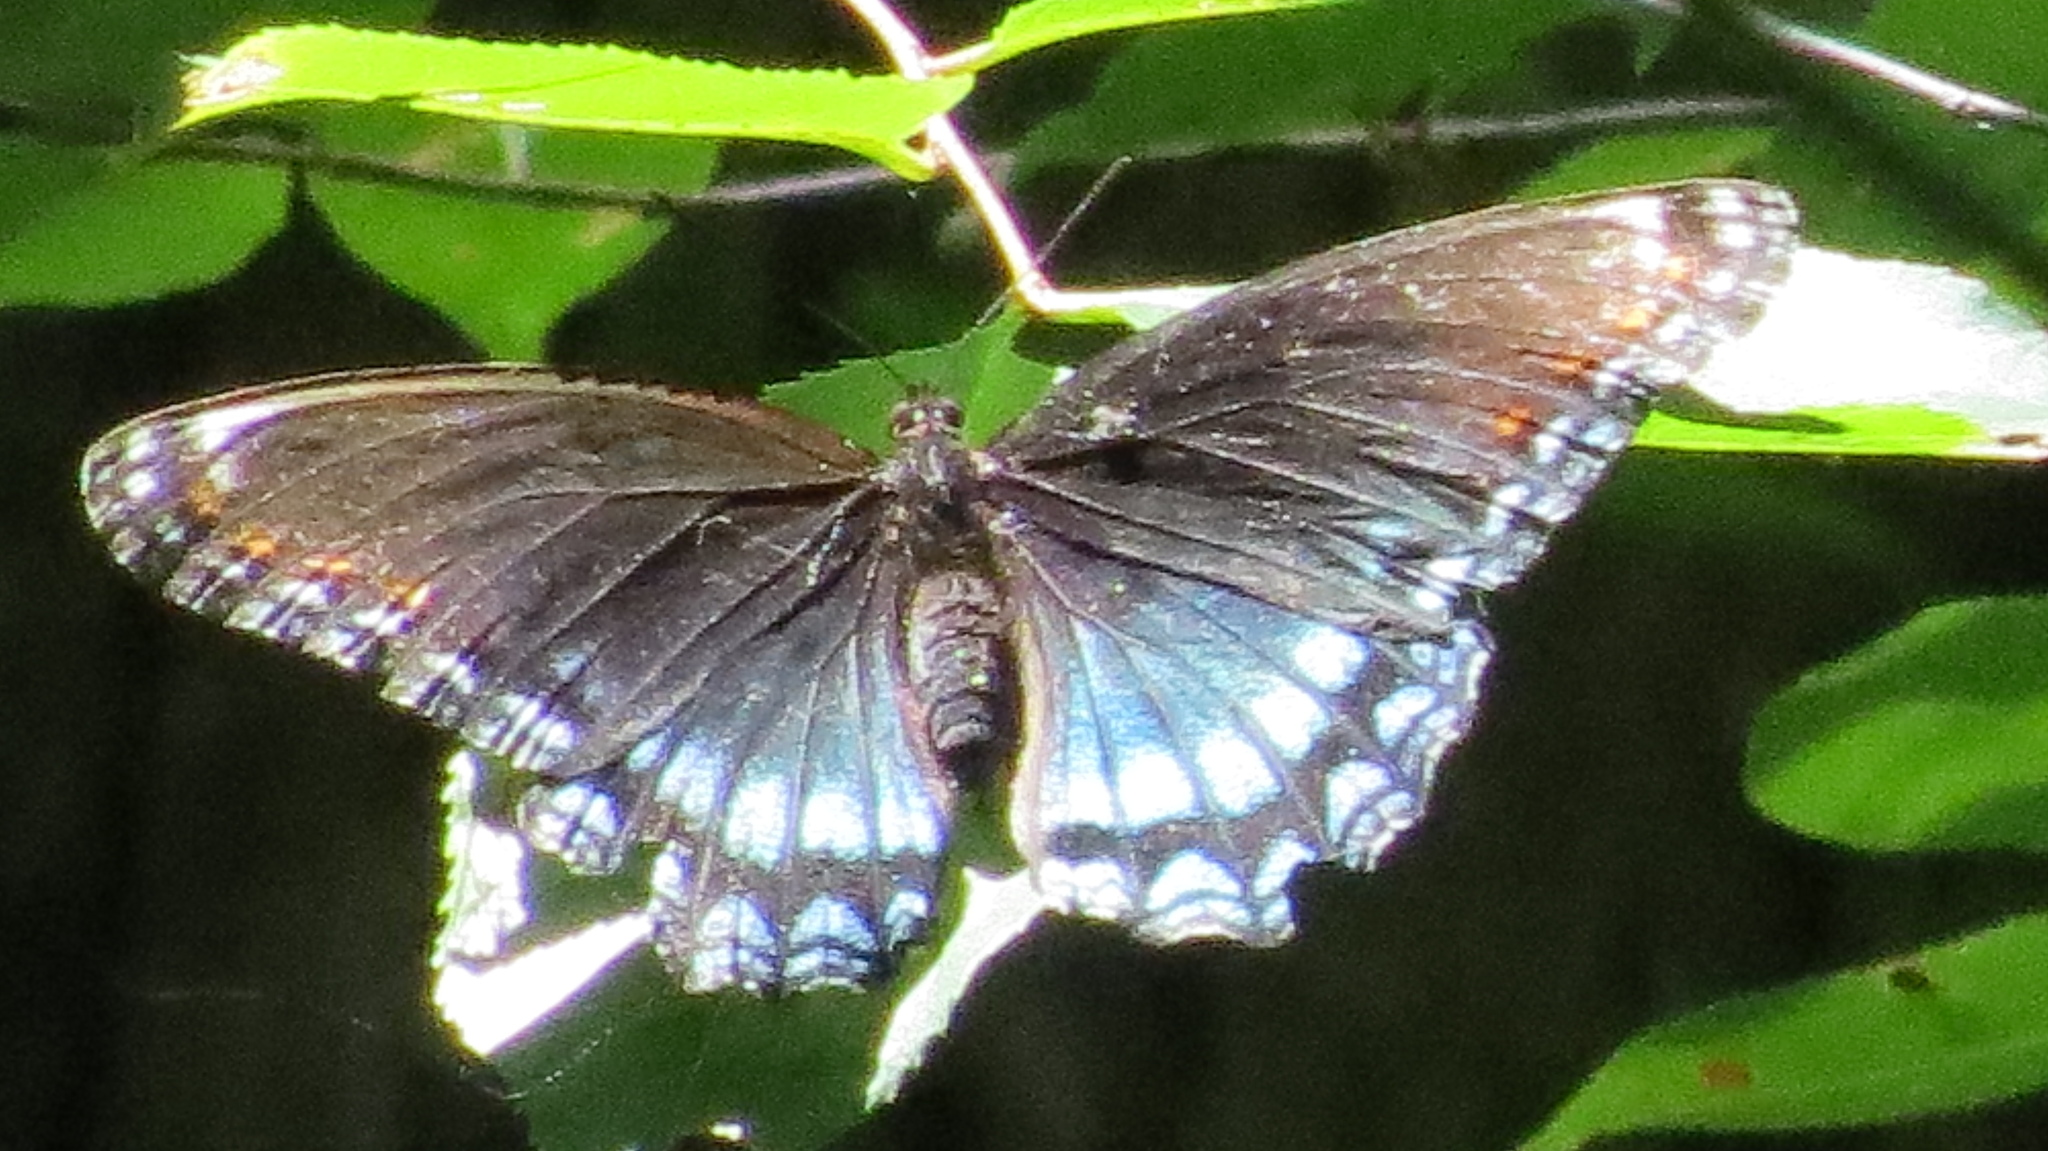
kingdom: Animalia
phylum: Arthropoda
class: Insecta
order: Lepidoptera
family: Nymphalidae
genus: Limenitis
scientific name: Limenitis astyanax
